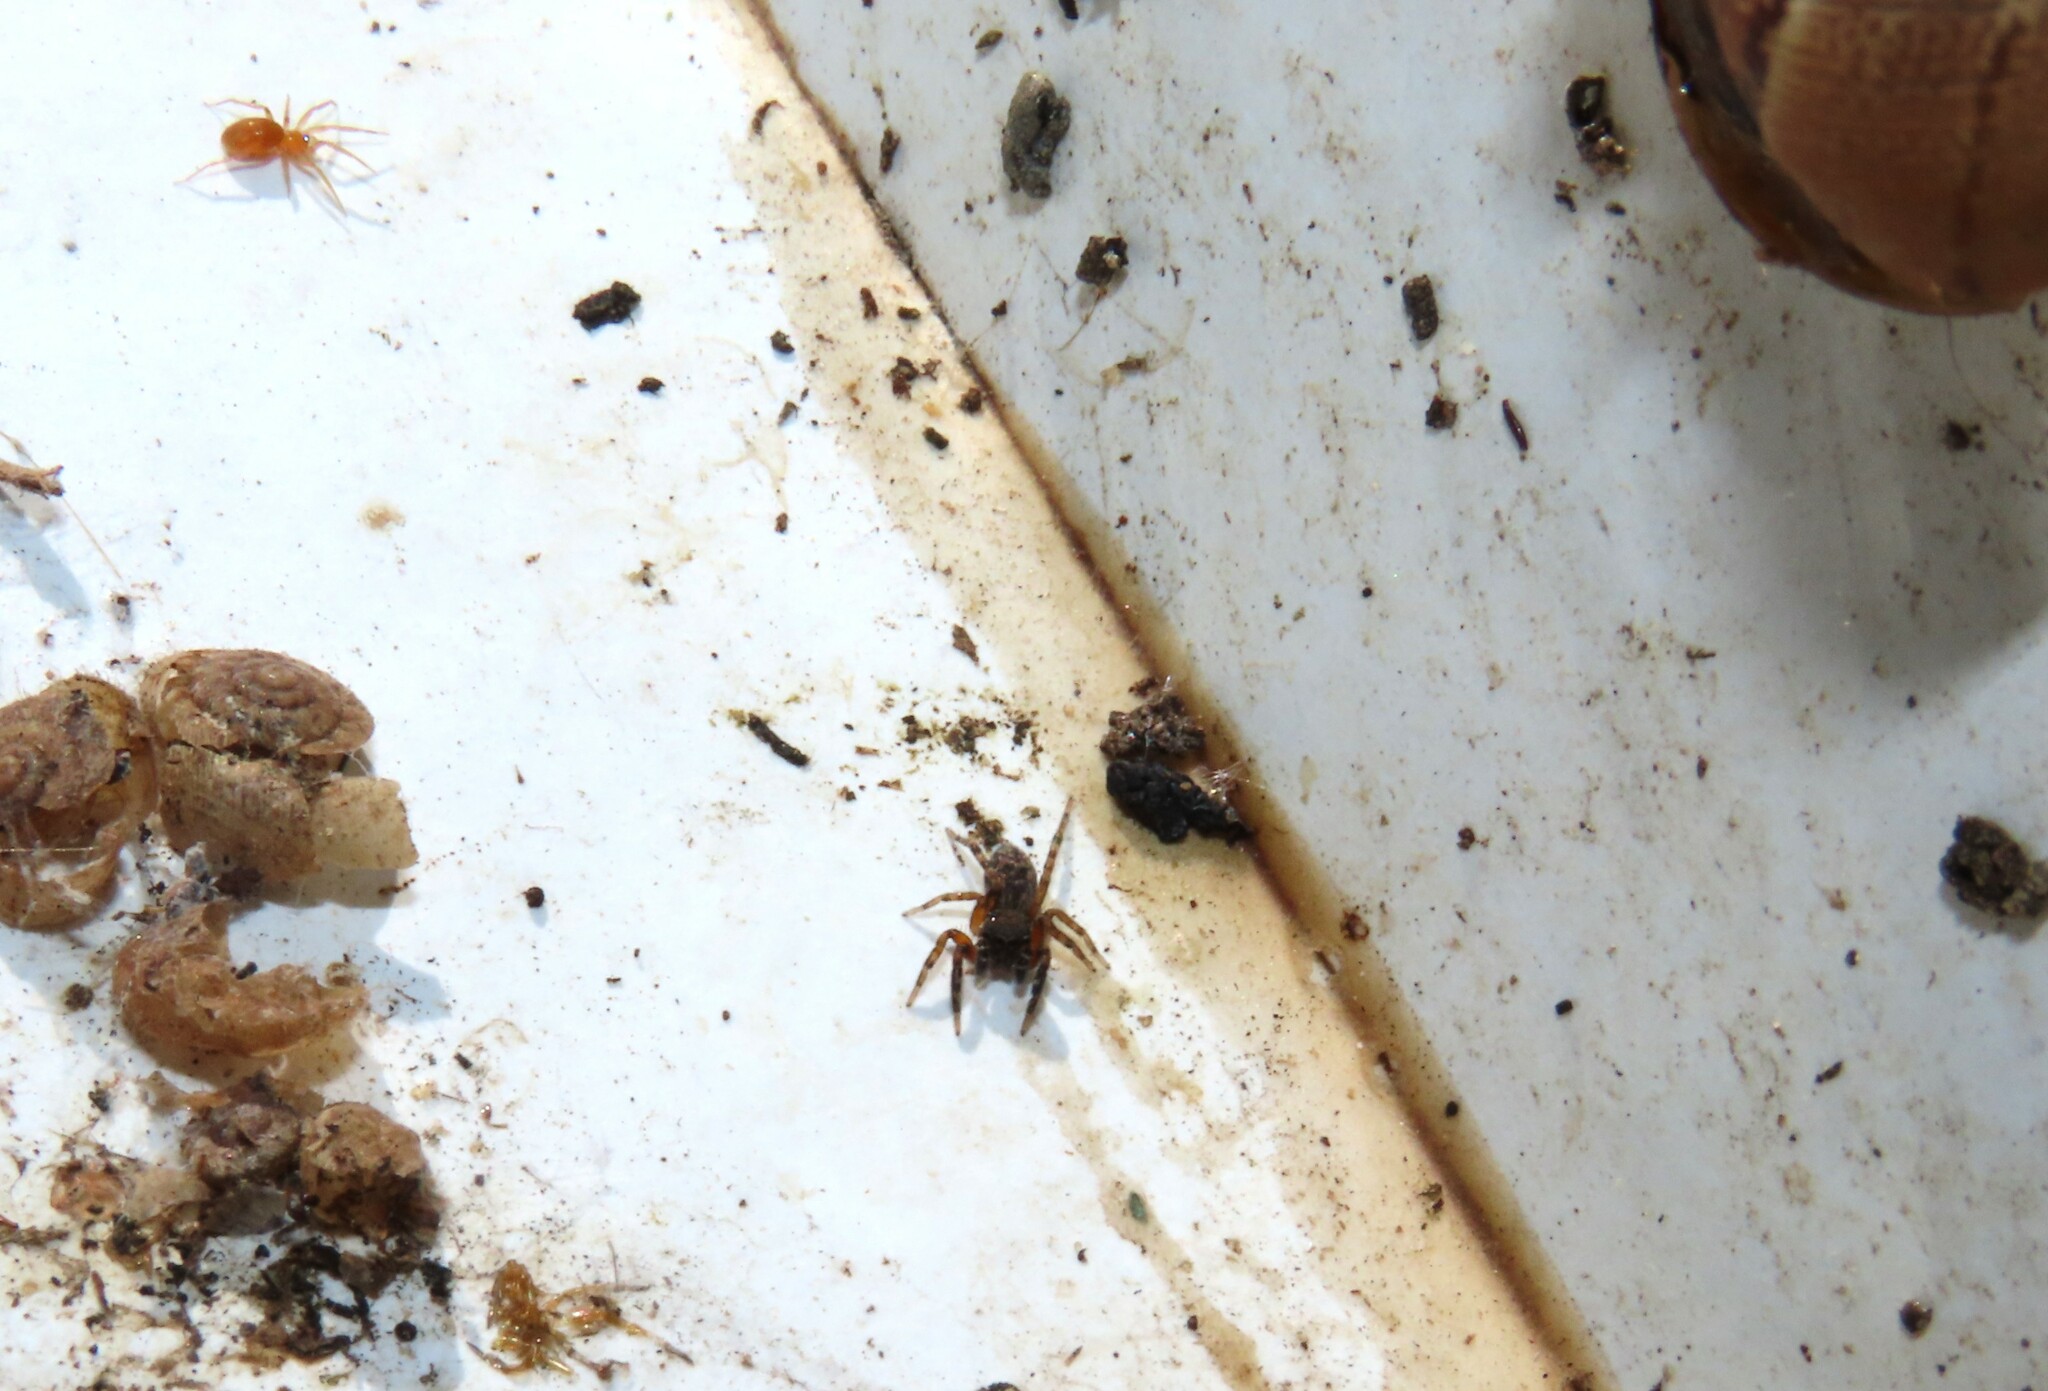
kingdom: Animalia
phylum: Arthropoda
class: Arachnida
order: Araneae
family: Salticidae
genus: Cyrba
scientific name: Cyrba algerina
